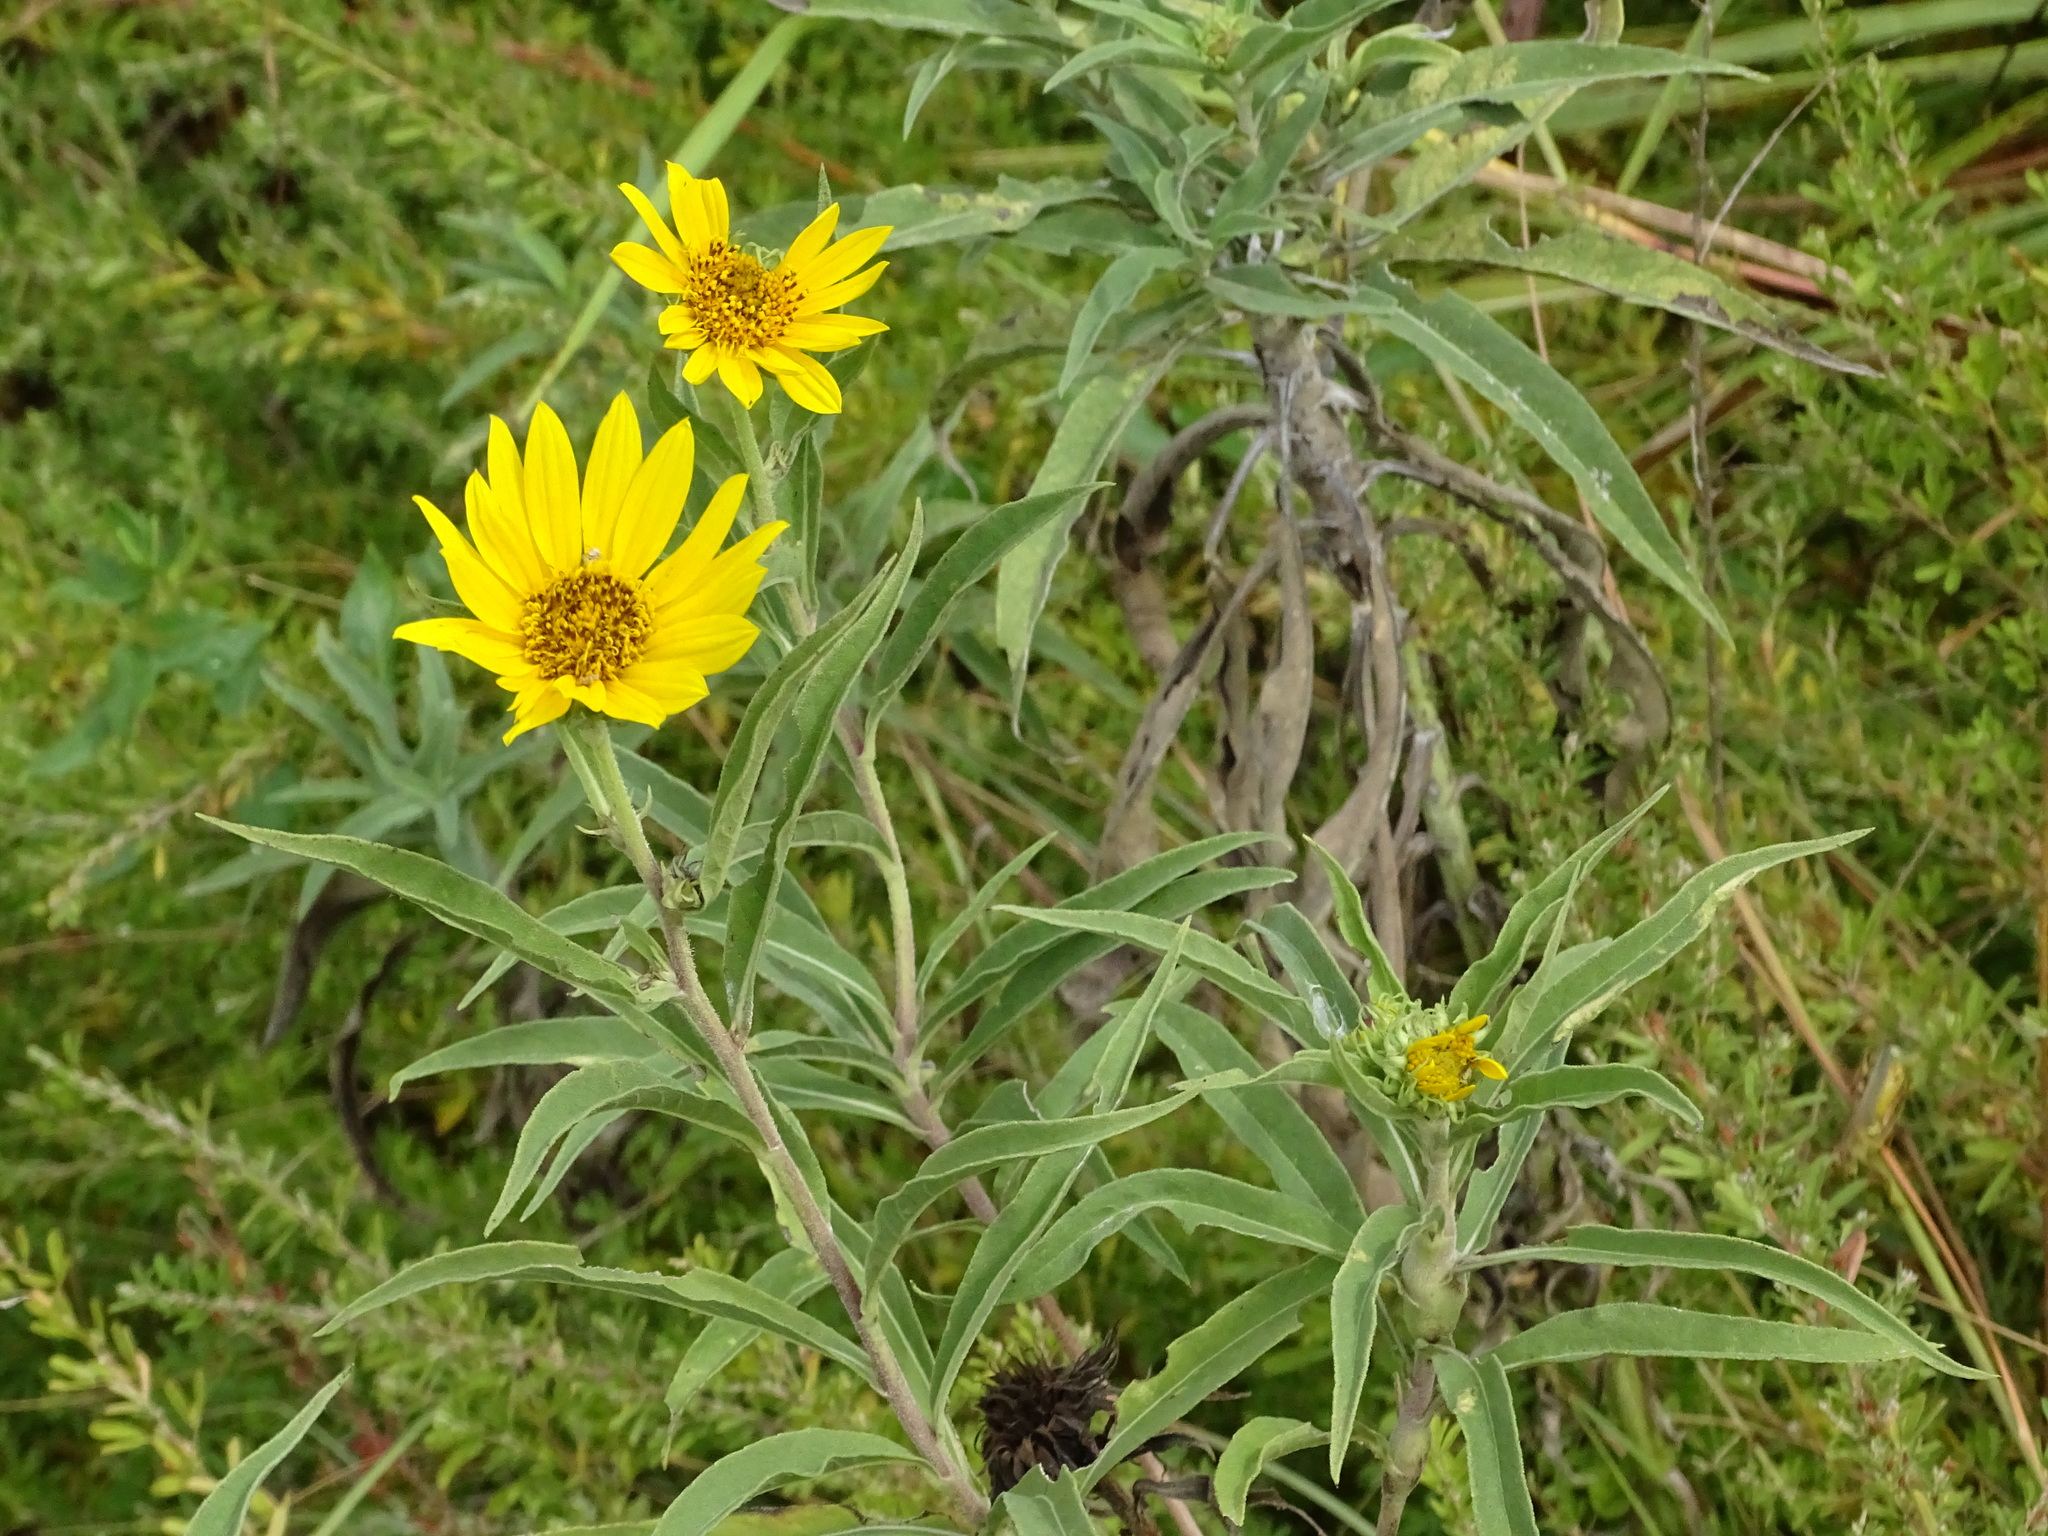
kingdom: Plantae
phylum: Tracheophyta
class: Magnoliopsida
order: Asterales
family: Asteraceae
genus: Helianthus
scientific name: Helianthus maximiliani
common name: Maximilian's sunflower
